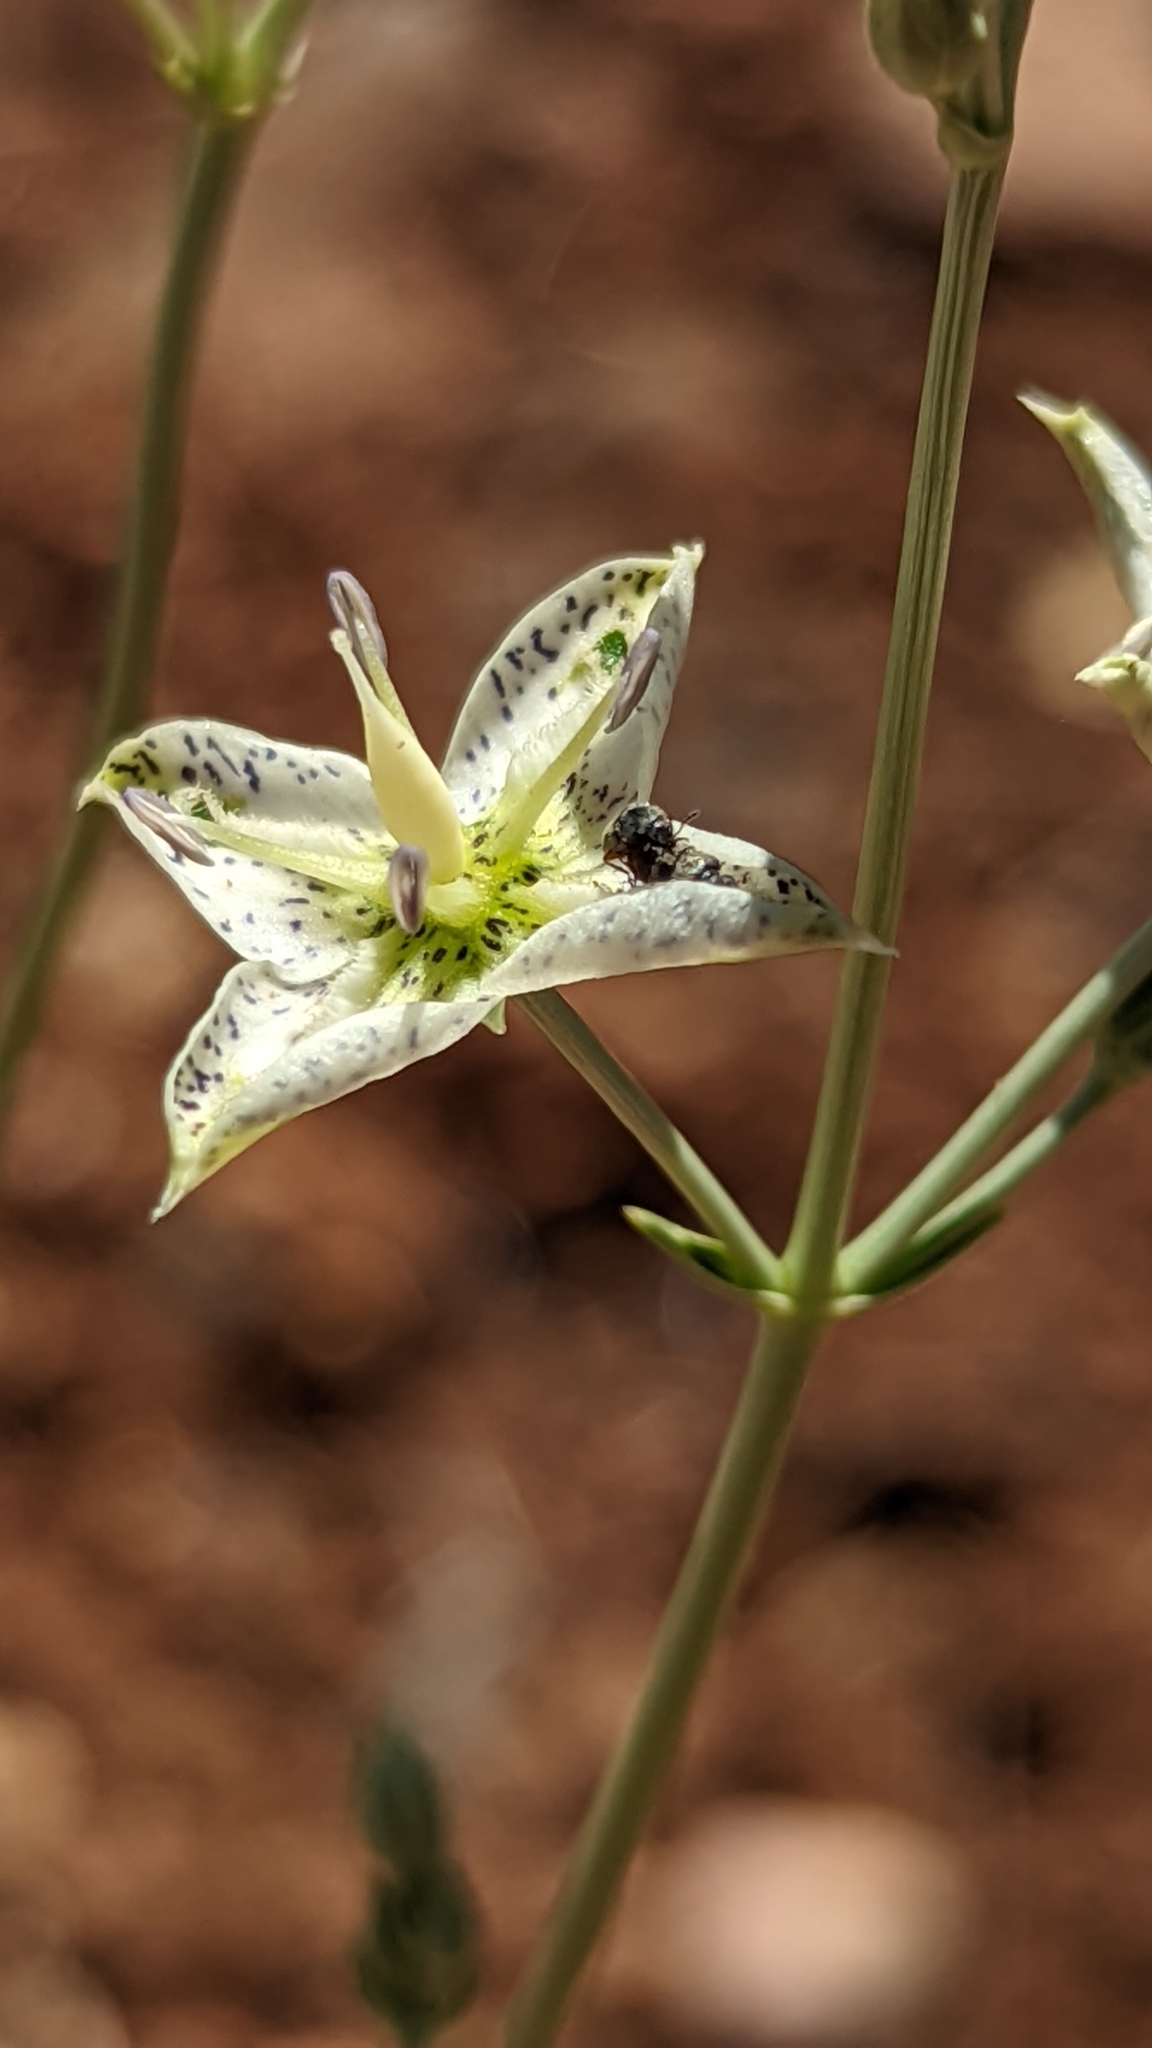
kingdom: Plantae
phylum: Tracheophyta
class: Magnoliopsida
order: Gentianales
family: Gentianaceae
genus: Frasera
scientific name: Frasera albomarginata
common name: Desert frasera
